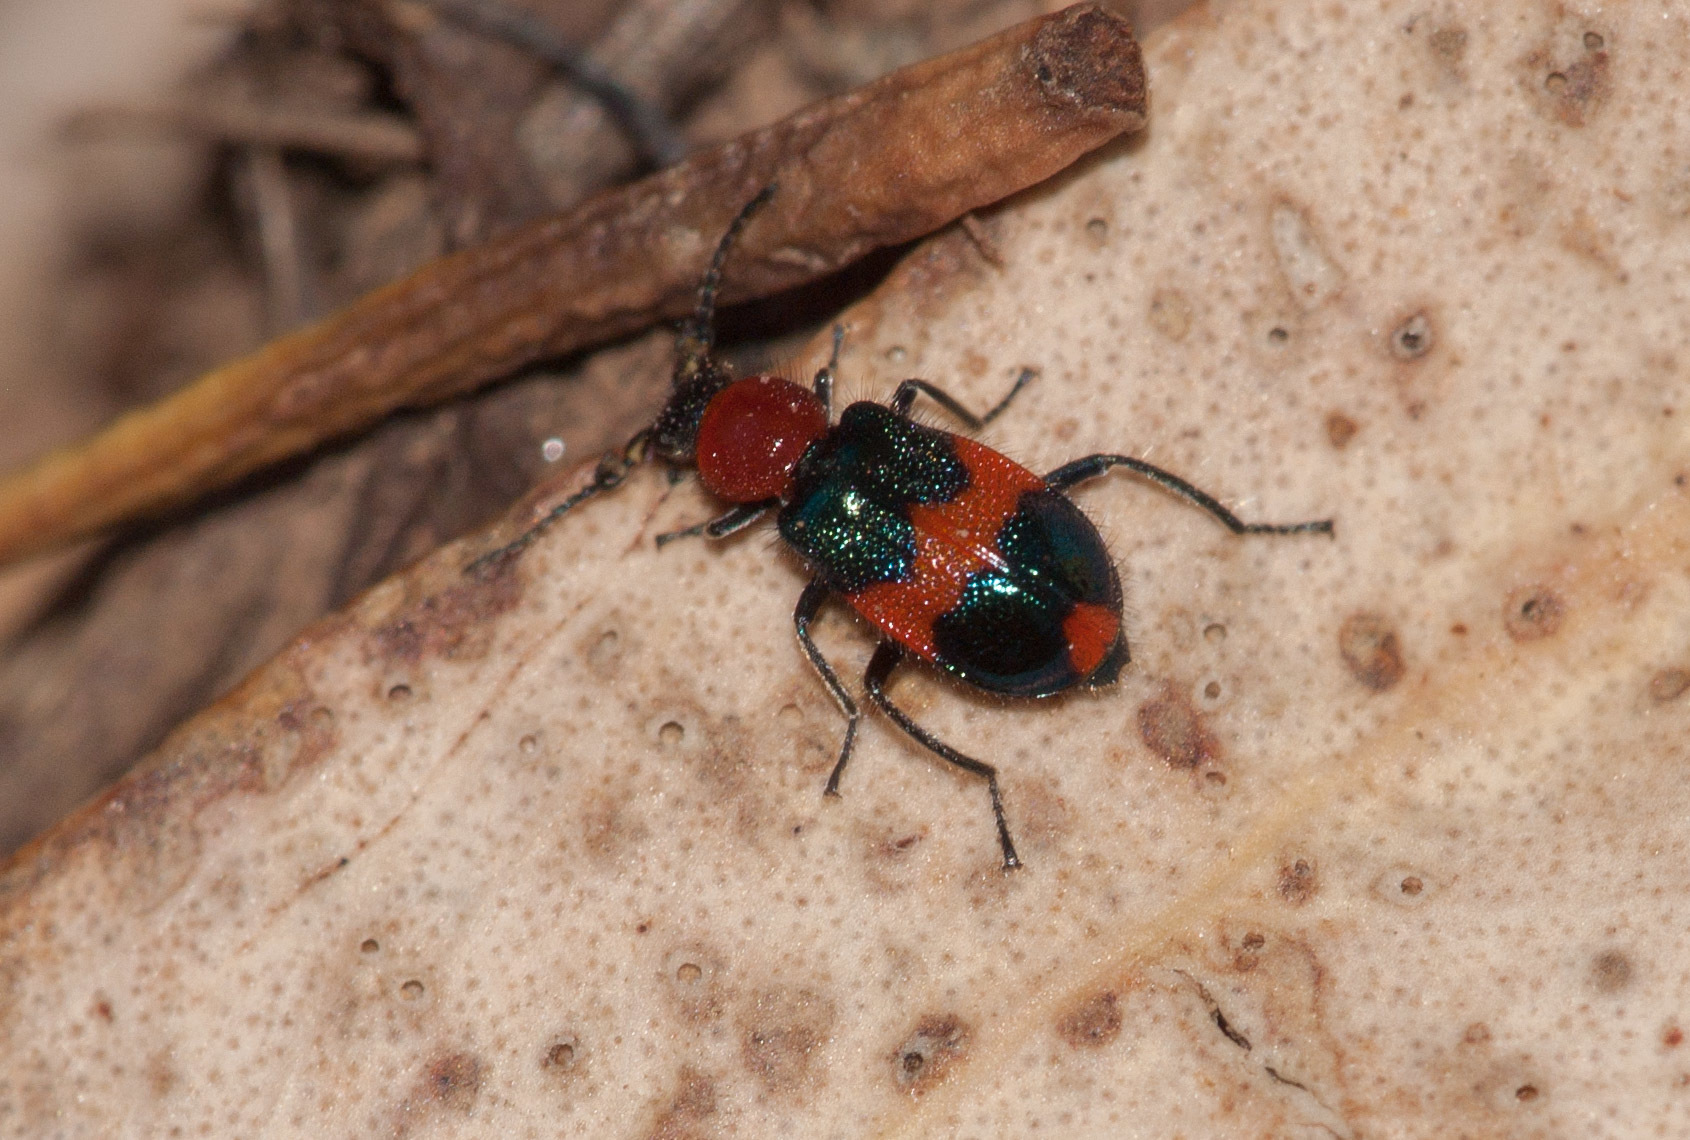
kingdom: Animalia
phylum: Arthropoda
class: Insecta
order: Coleoptera
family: Melyridae
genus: Dicranolaius
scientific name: Dicranolaius bellulus
